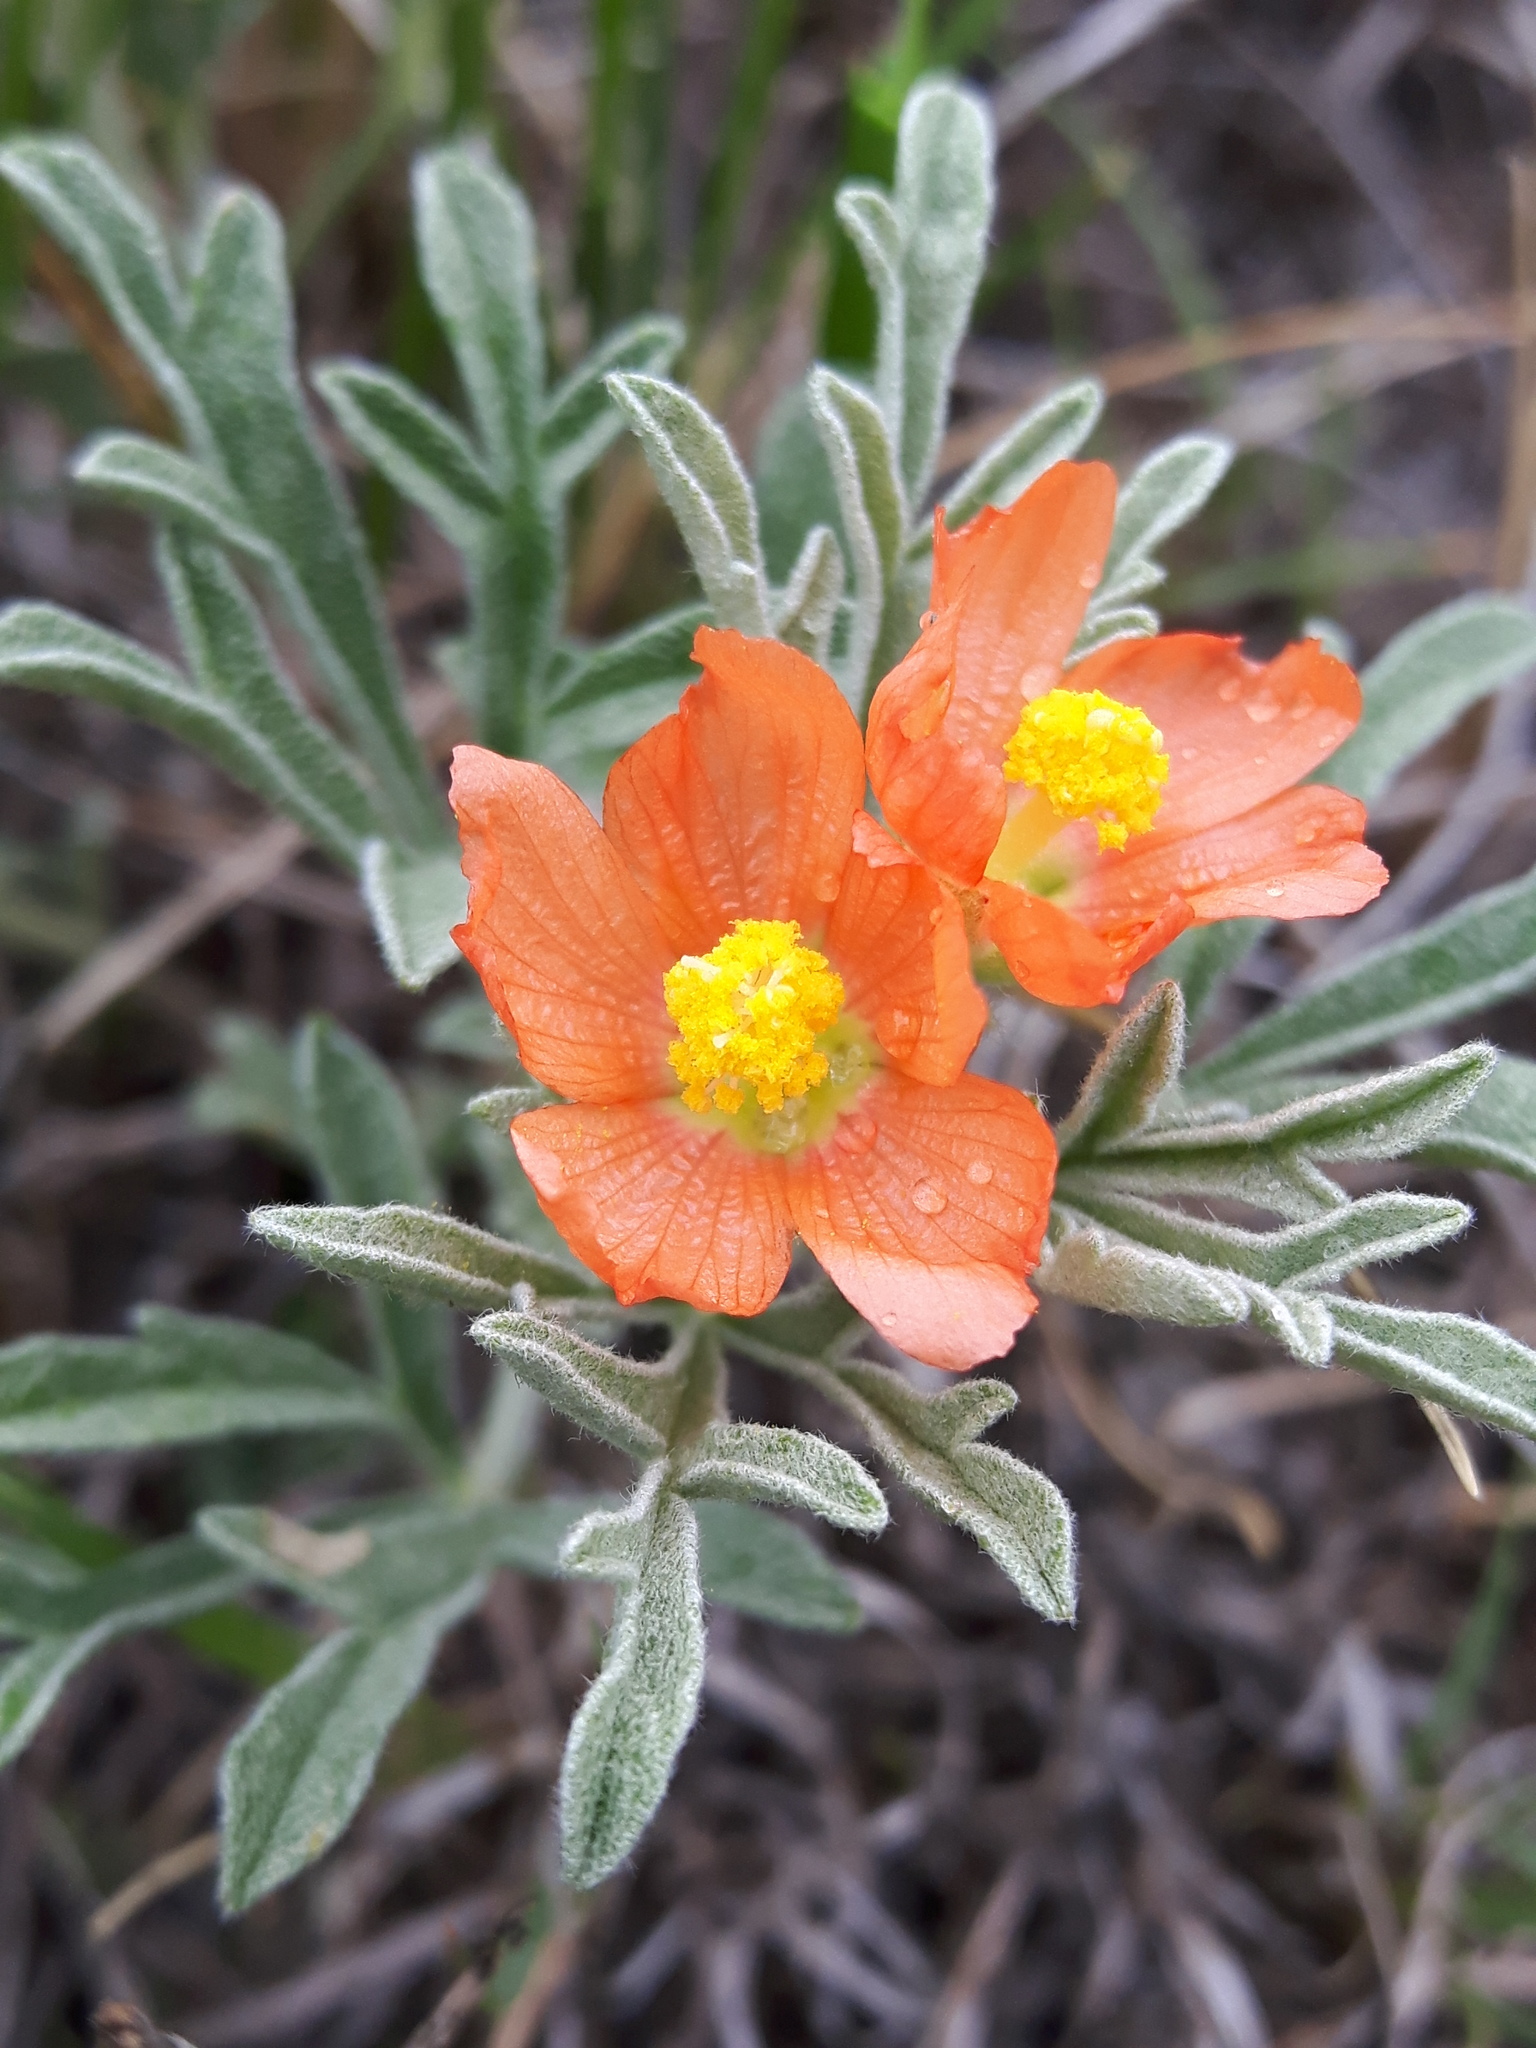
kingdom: Plantae
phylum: Tracheophyta
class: Magnoliopsida
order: Malvales
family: Malvaceae
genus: Sphaeralcea
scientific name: Sphaeralcea coccinea
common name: Moss-rose
